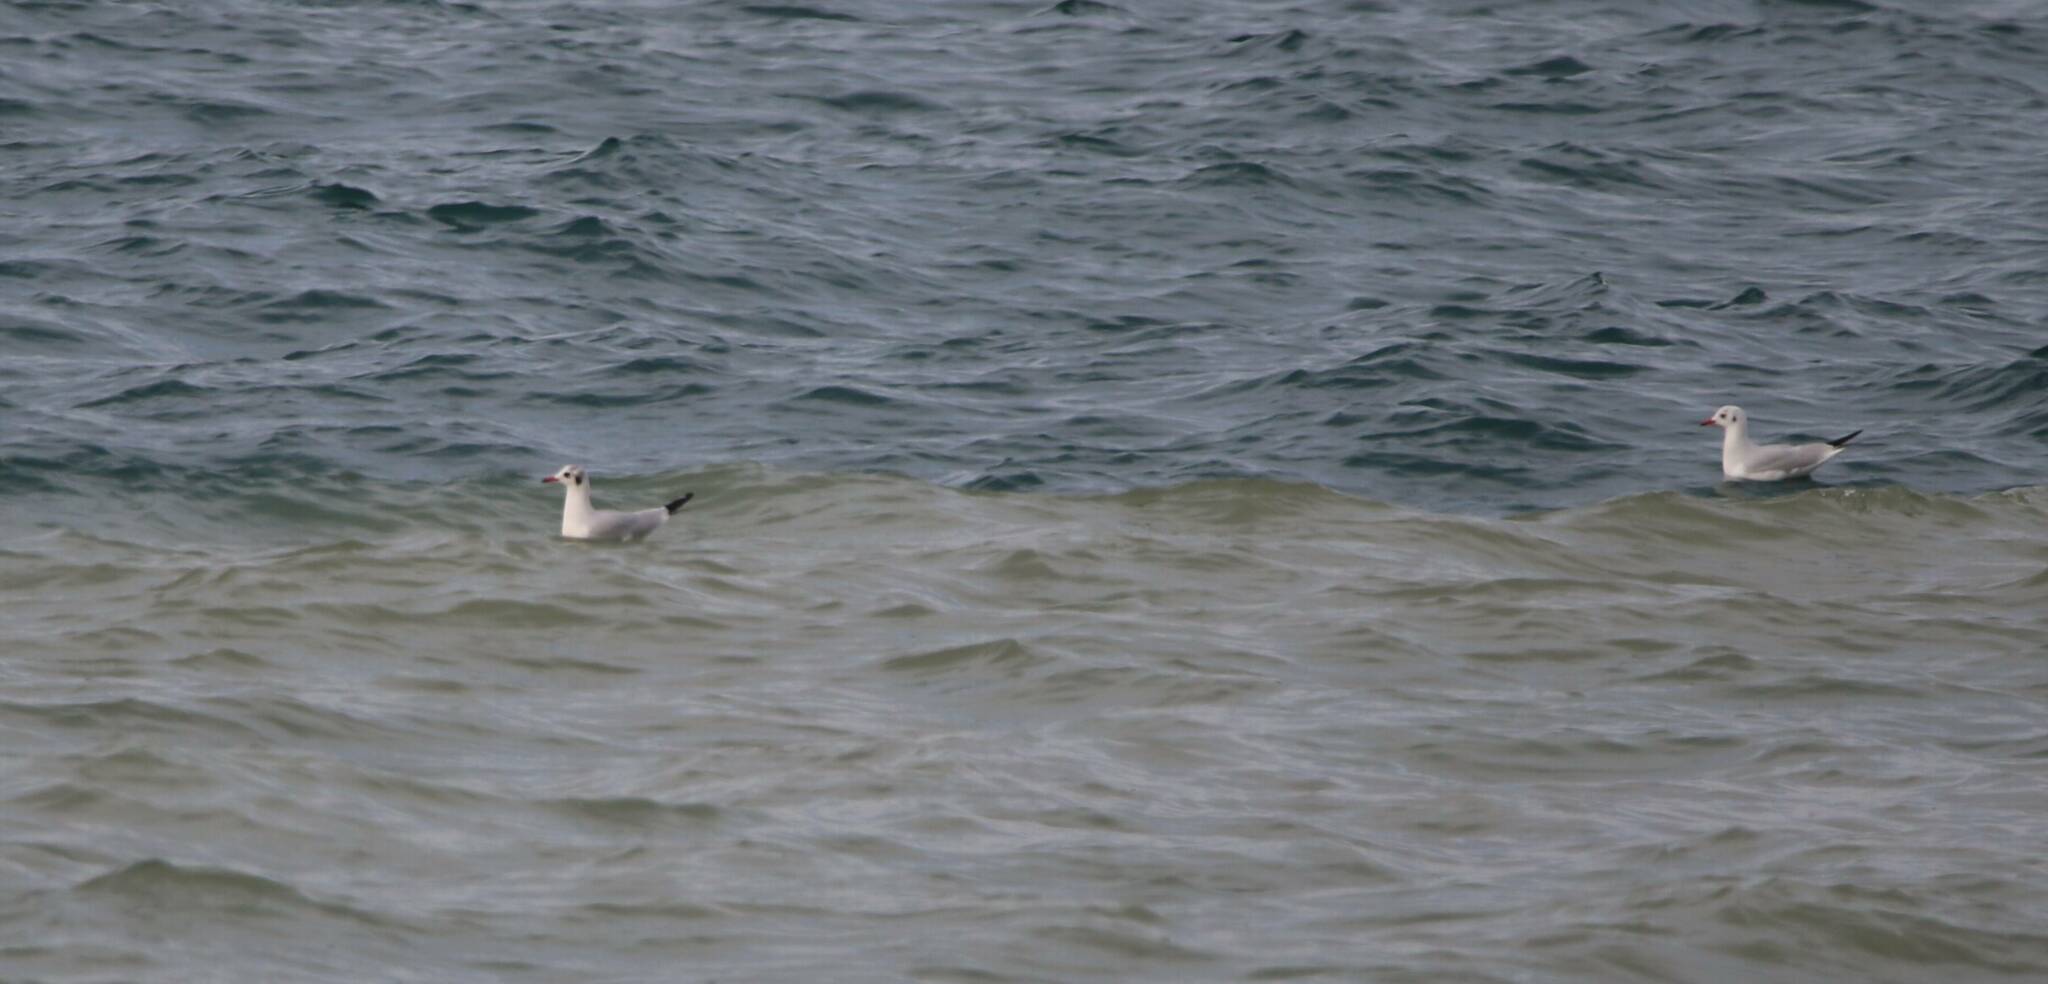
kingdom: Animalia
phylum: Chordata
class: Aves
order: Charadriiformes
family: Laridae
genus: Chroicocephalus
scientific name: Chroicocephalus ridibundus
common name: Black-headed gull
